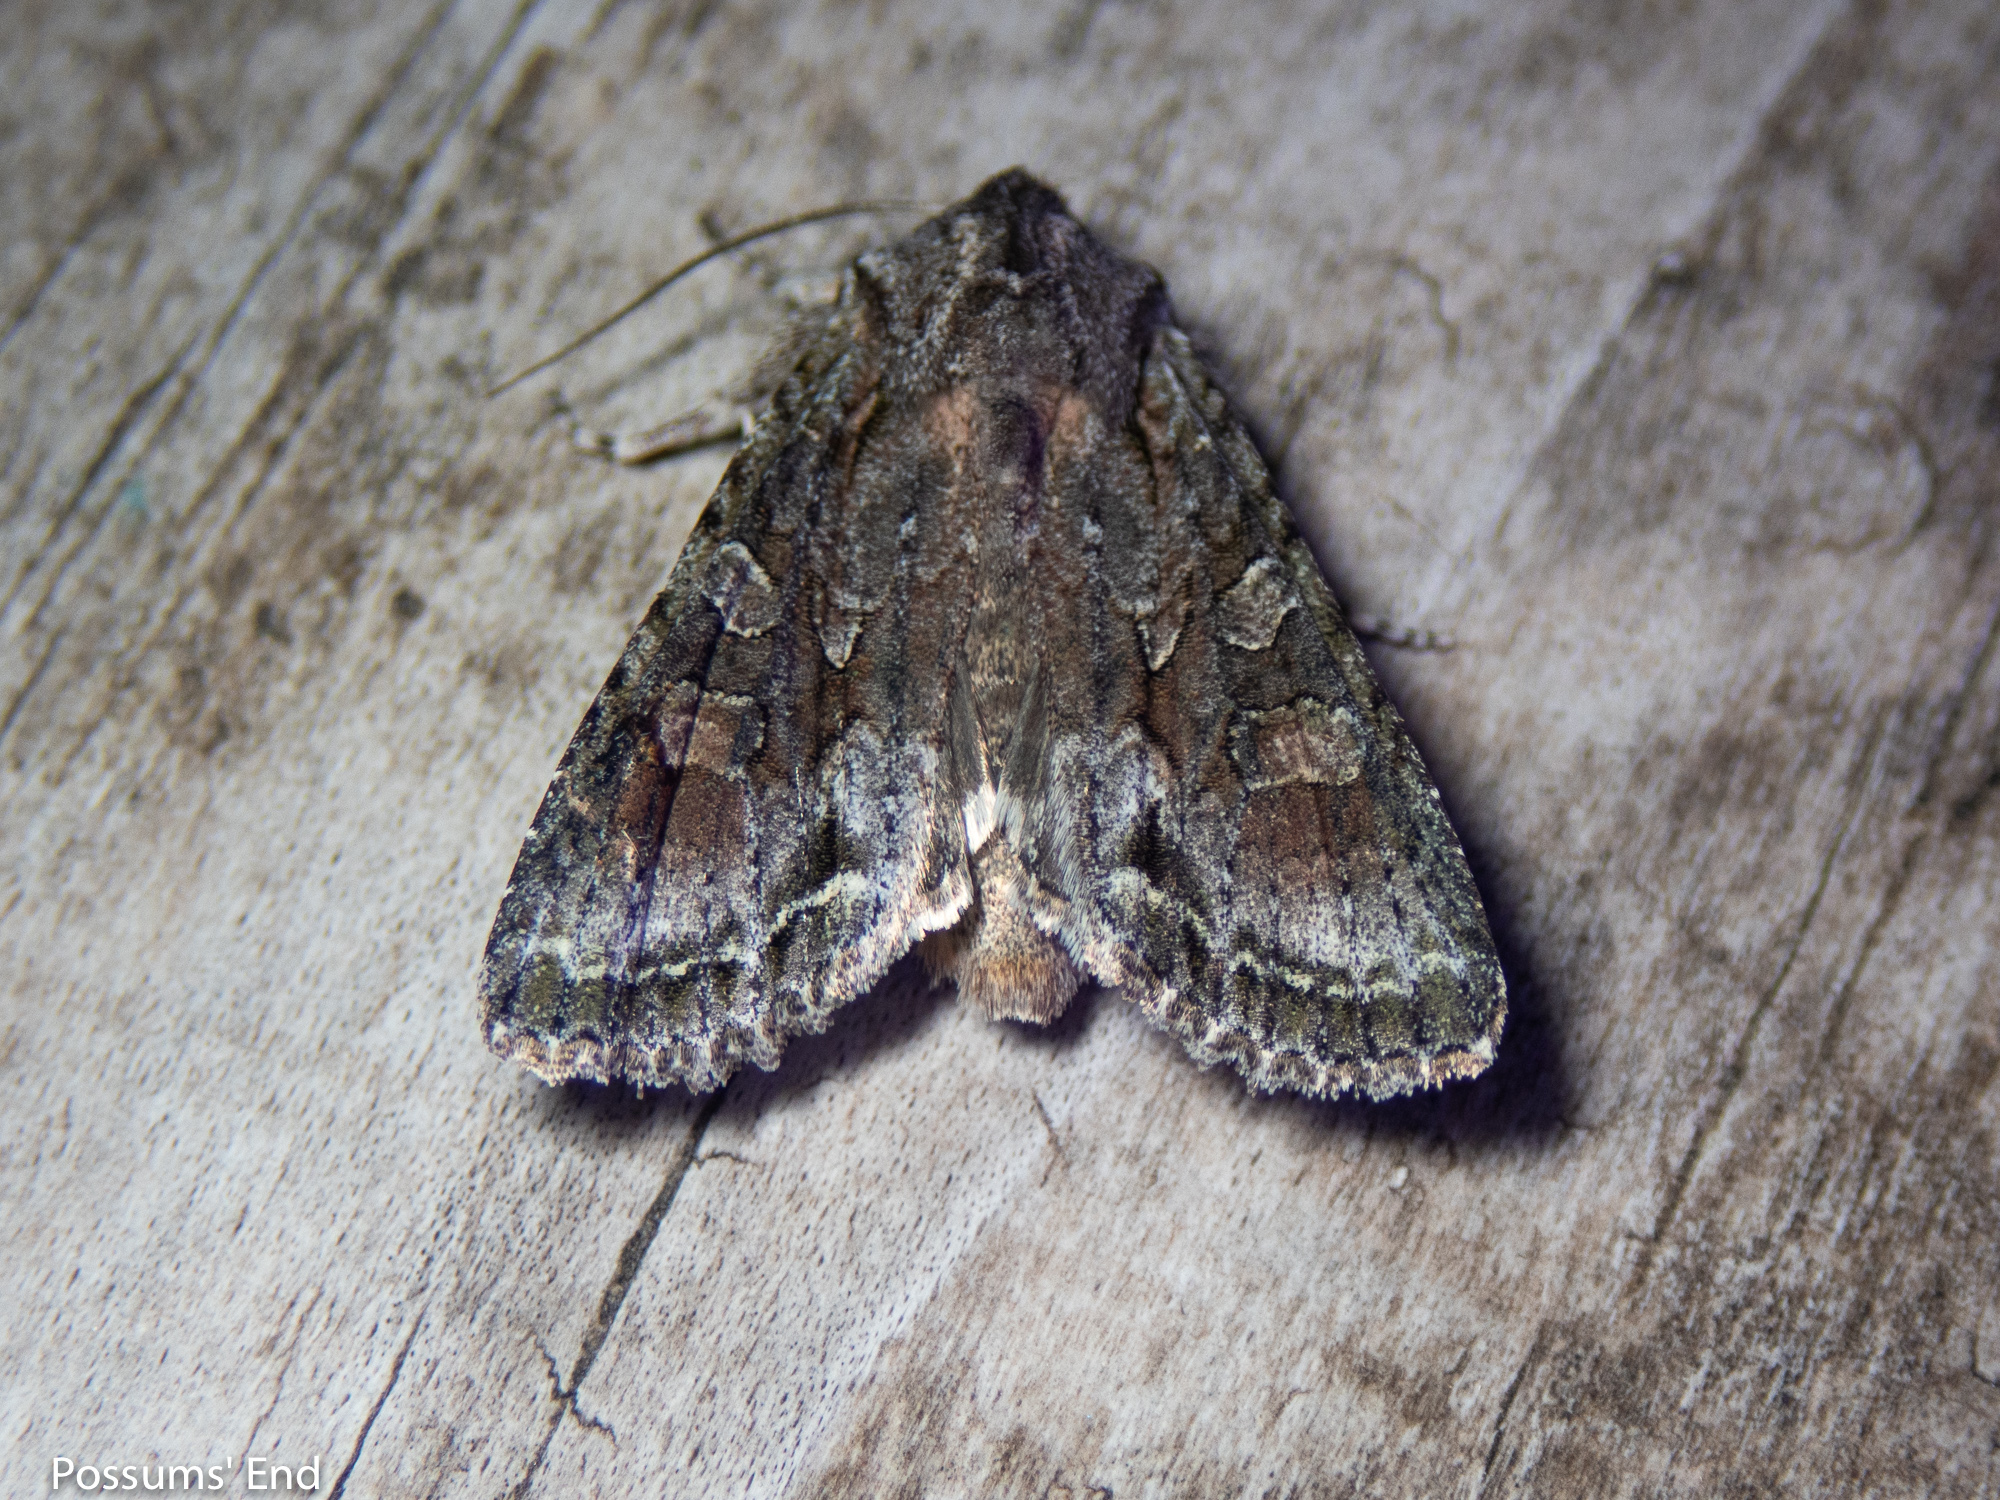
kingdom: Animalia
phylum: Arthropoda
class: Insecta
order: Lepidoptera
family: Noctuidae
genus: Ichneutica
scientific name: Ichneutica mutans
